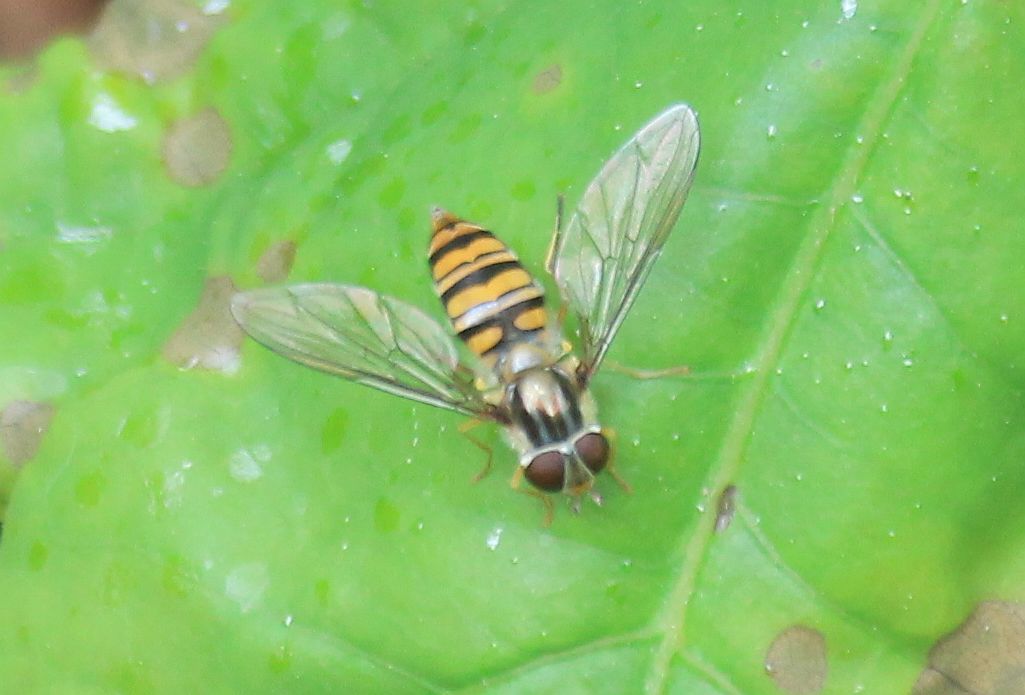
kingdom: Animalia
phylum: Arthropoda
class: Insecta
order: Diptera
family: Syrphidae
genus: Episyrphus
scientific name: Episyrphus balteatus
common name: Marmalade hoverfly
